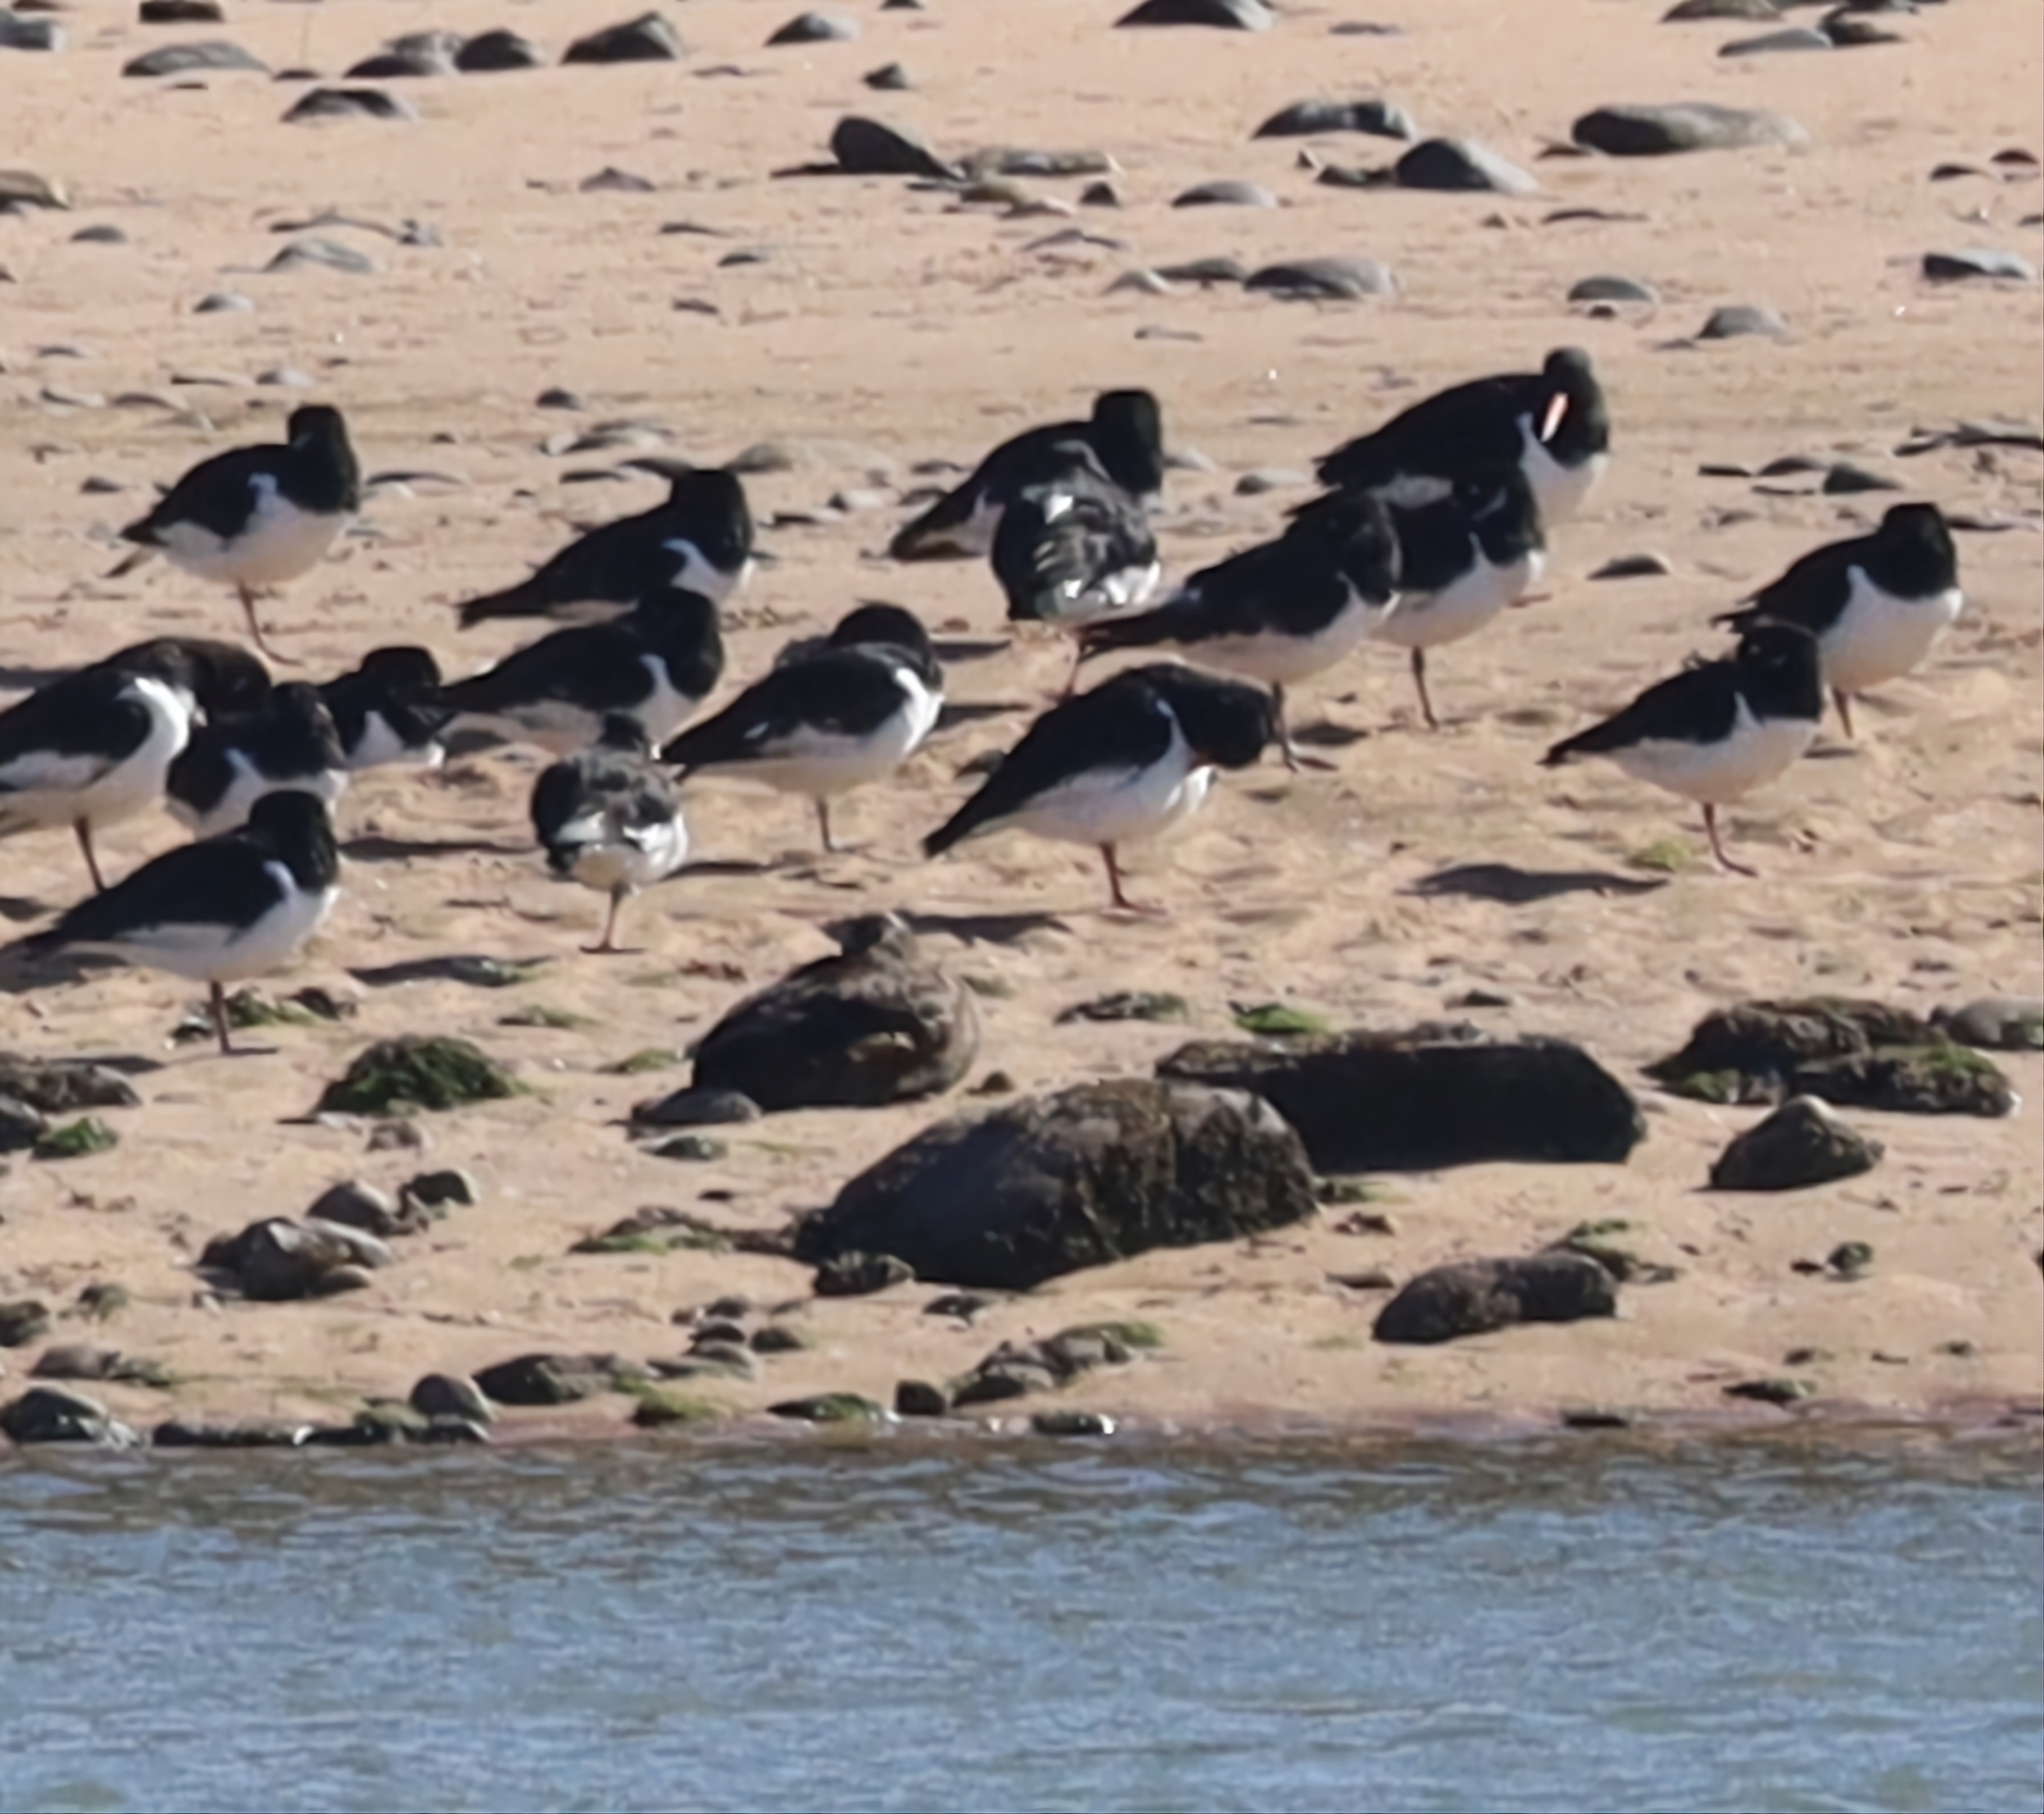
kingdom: Animalia
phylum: Chordata
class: Aves
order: Charadriiformes
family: Haematopodidae
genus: Haematopus
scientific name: Haematopus ostralegus
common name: Eurasian oystercatcher
